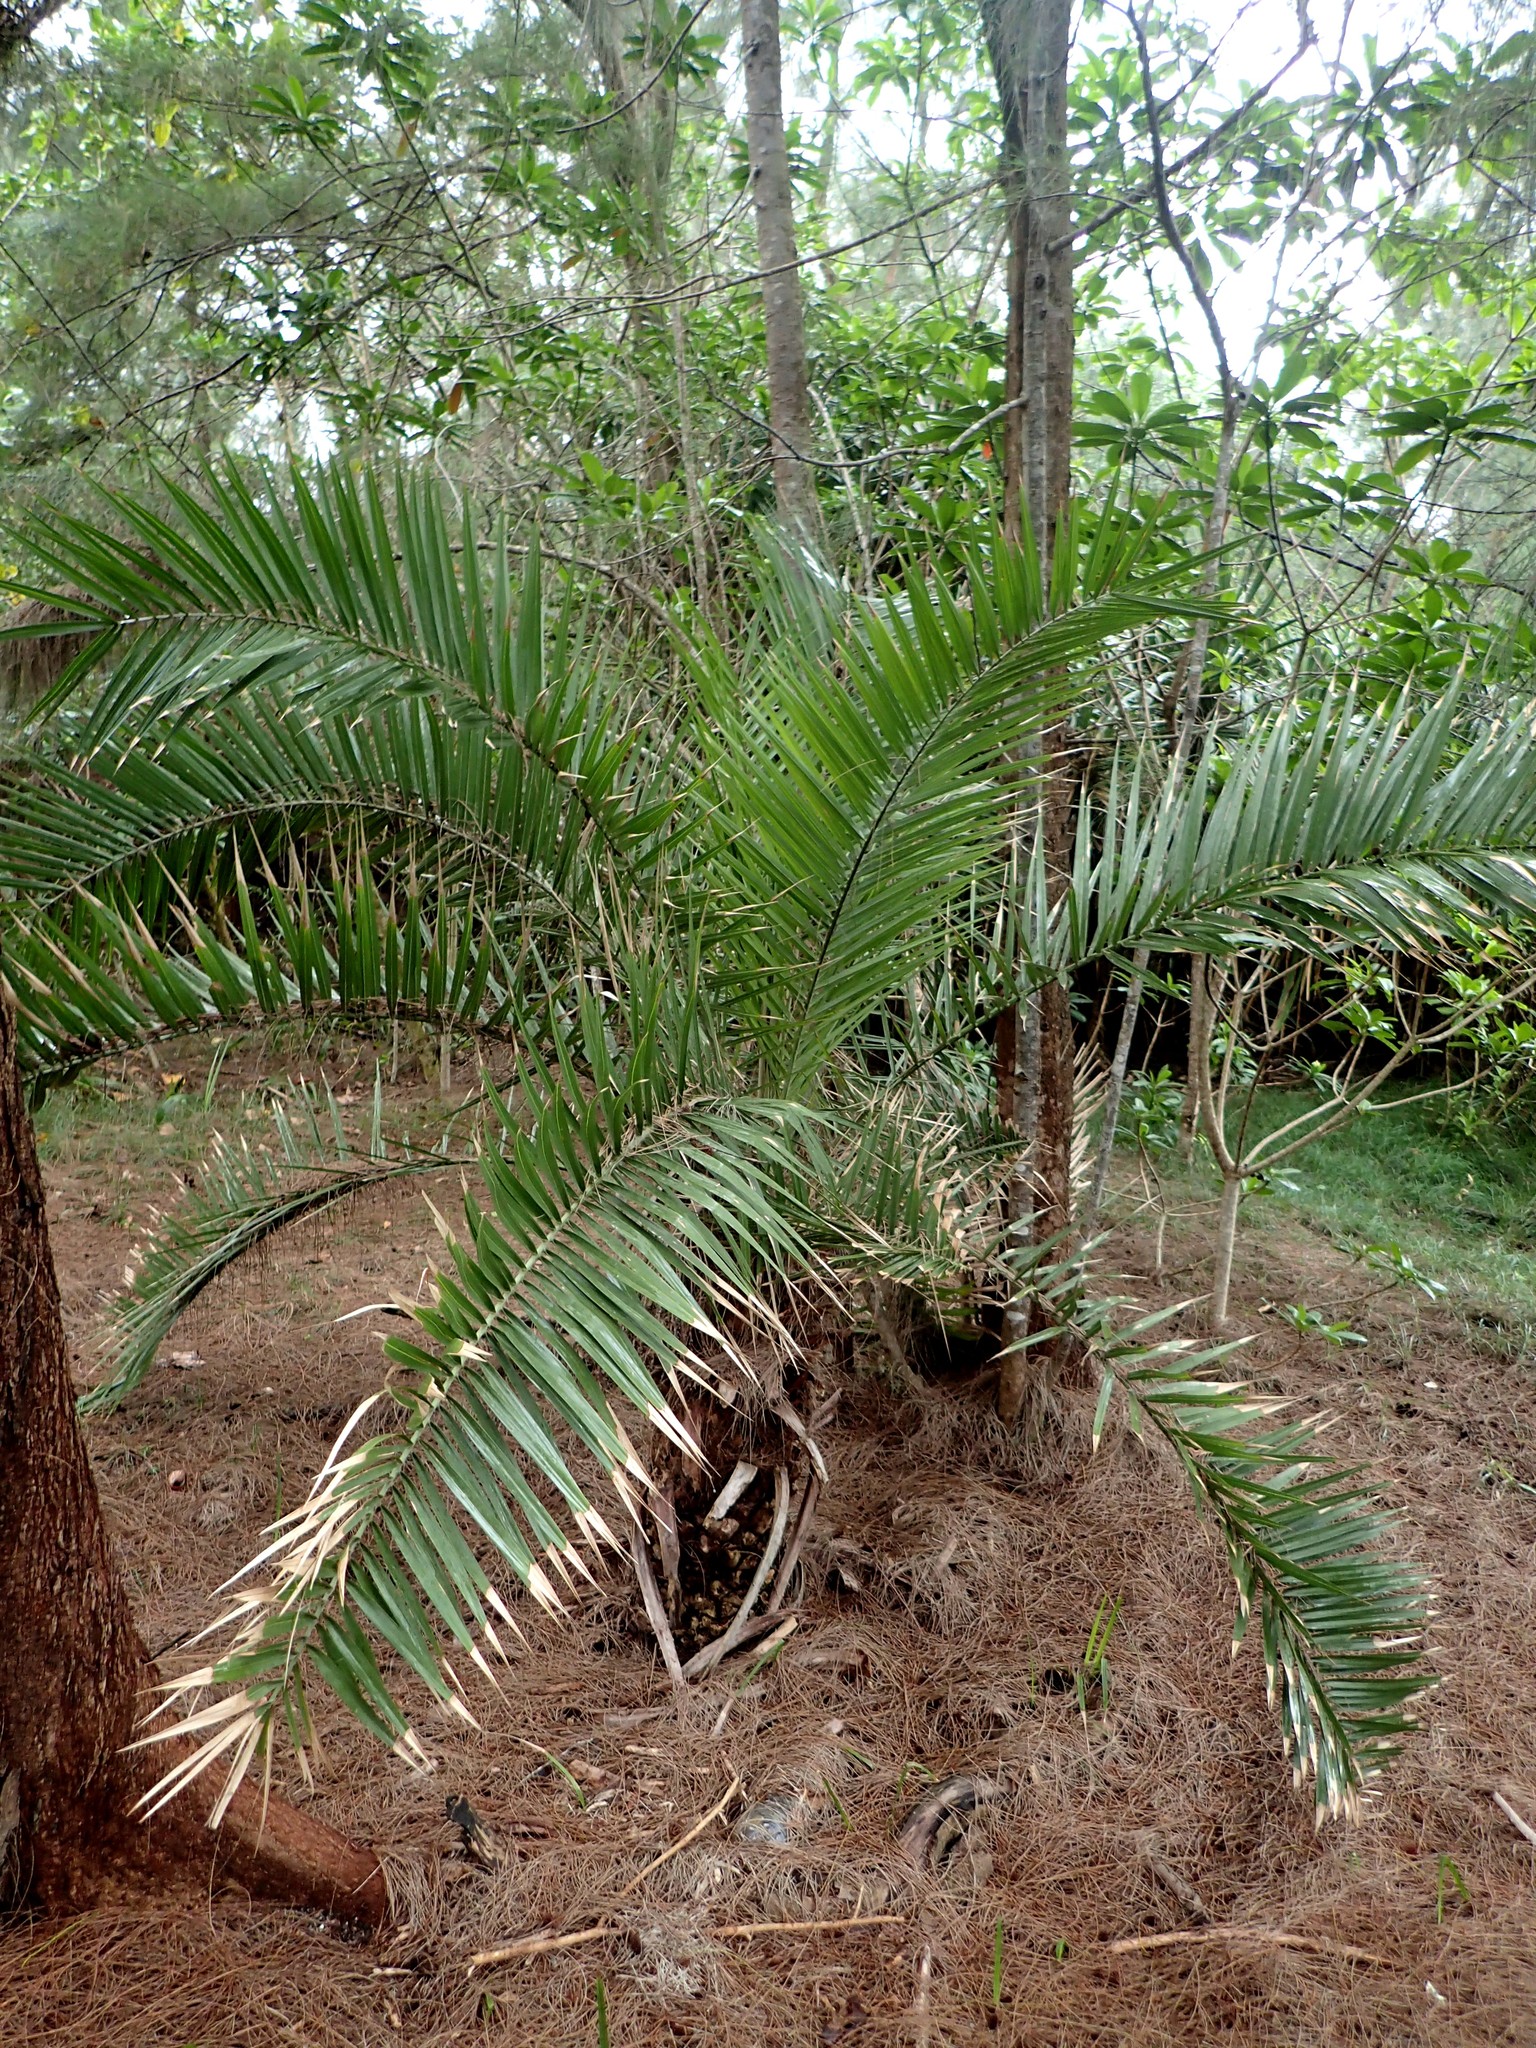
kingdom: Plantae
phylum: Tracheophyta
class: Liliopsida
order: Arecales
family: Arecaceae
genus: Phoenix
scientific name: Phoenix loureiroi
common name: Loureiro's palm
